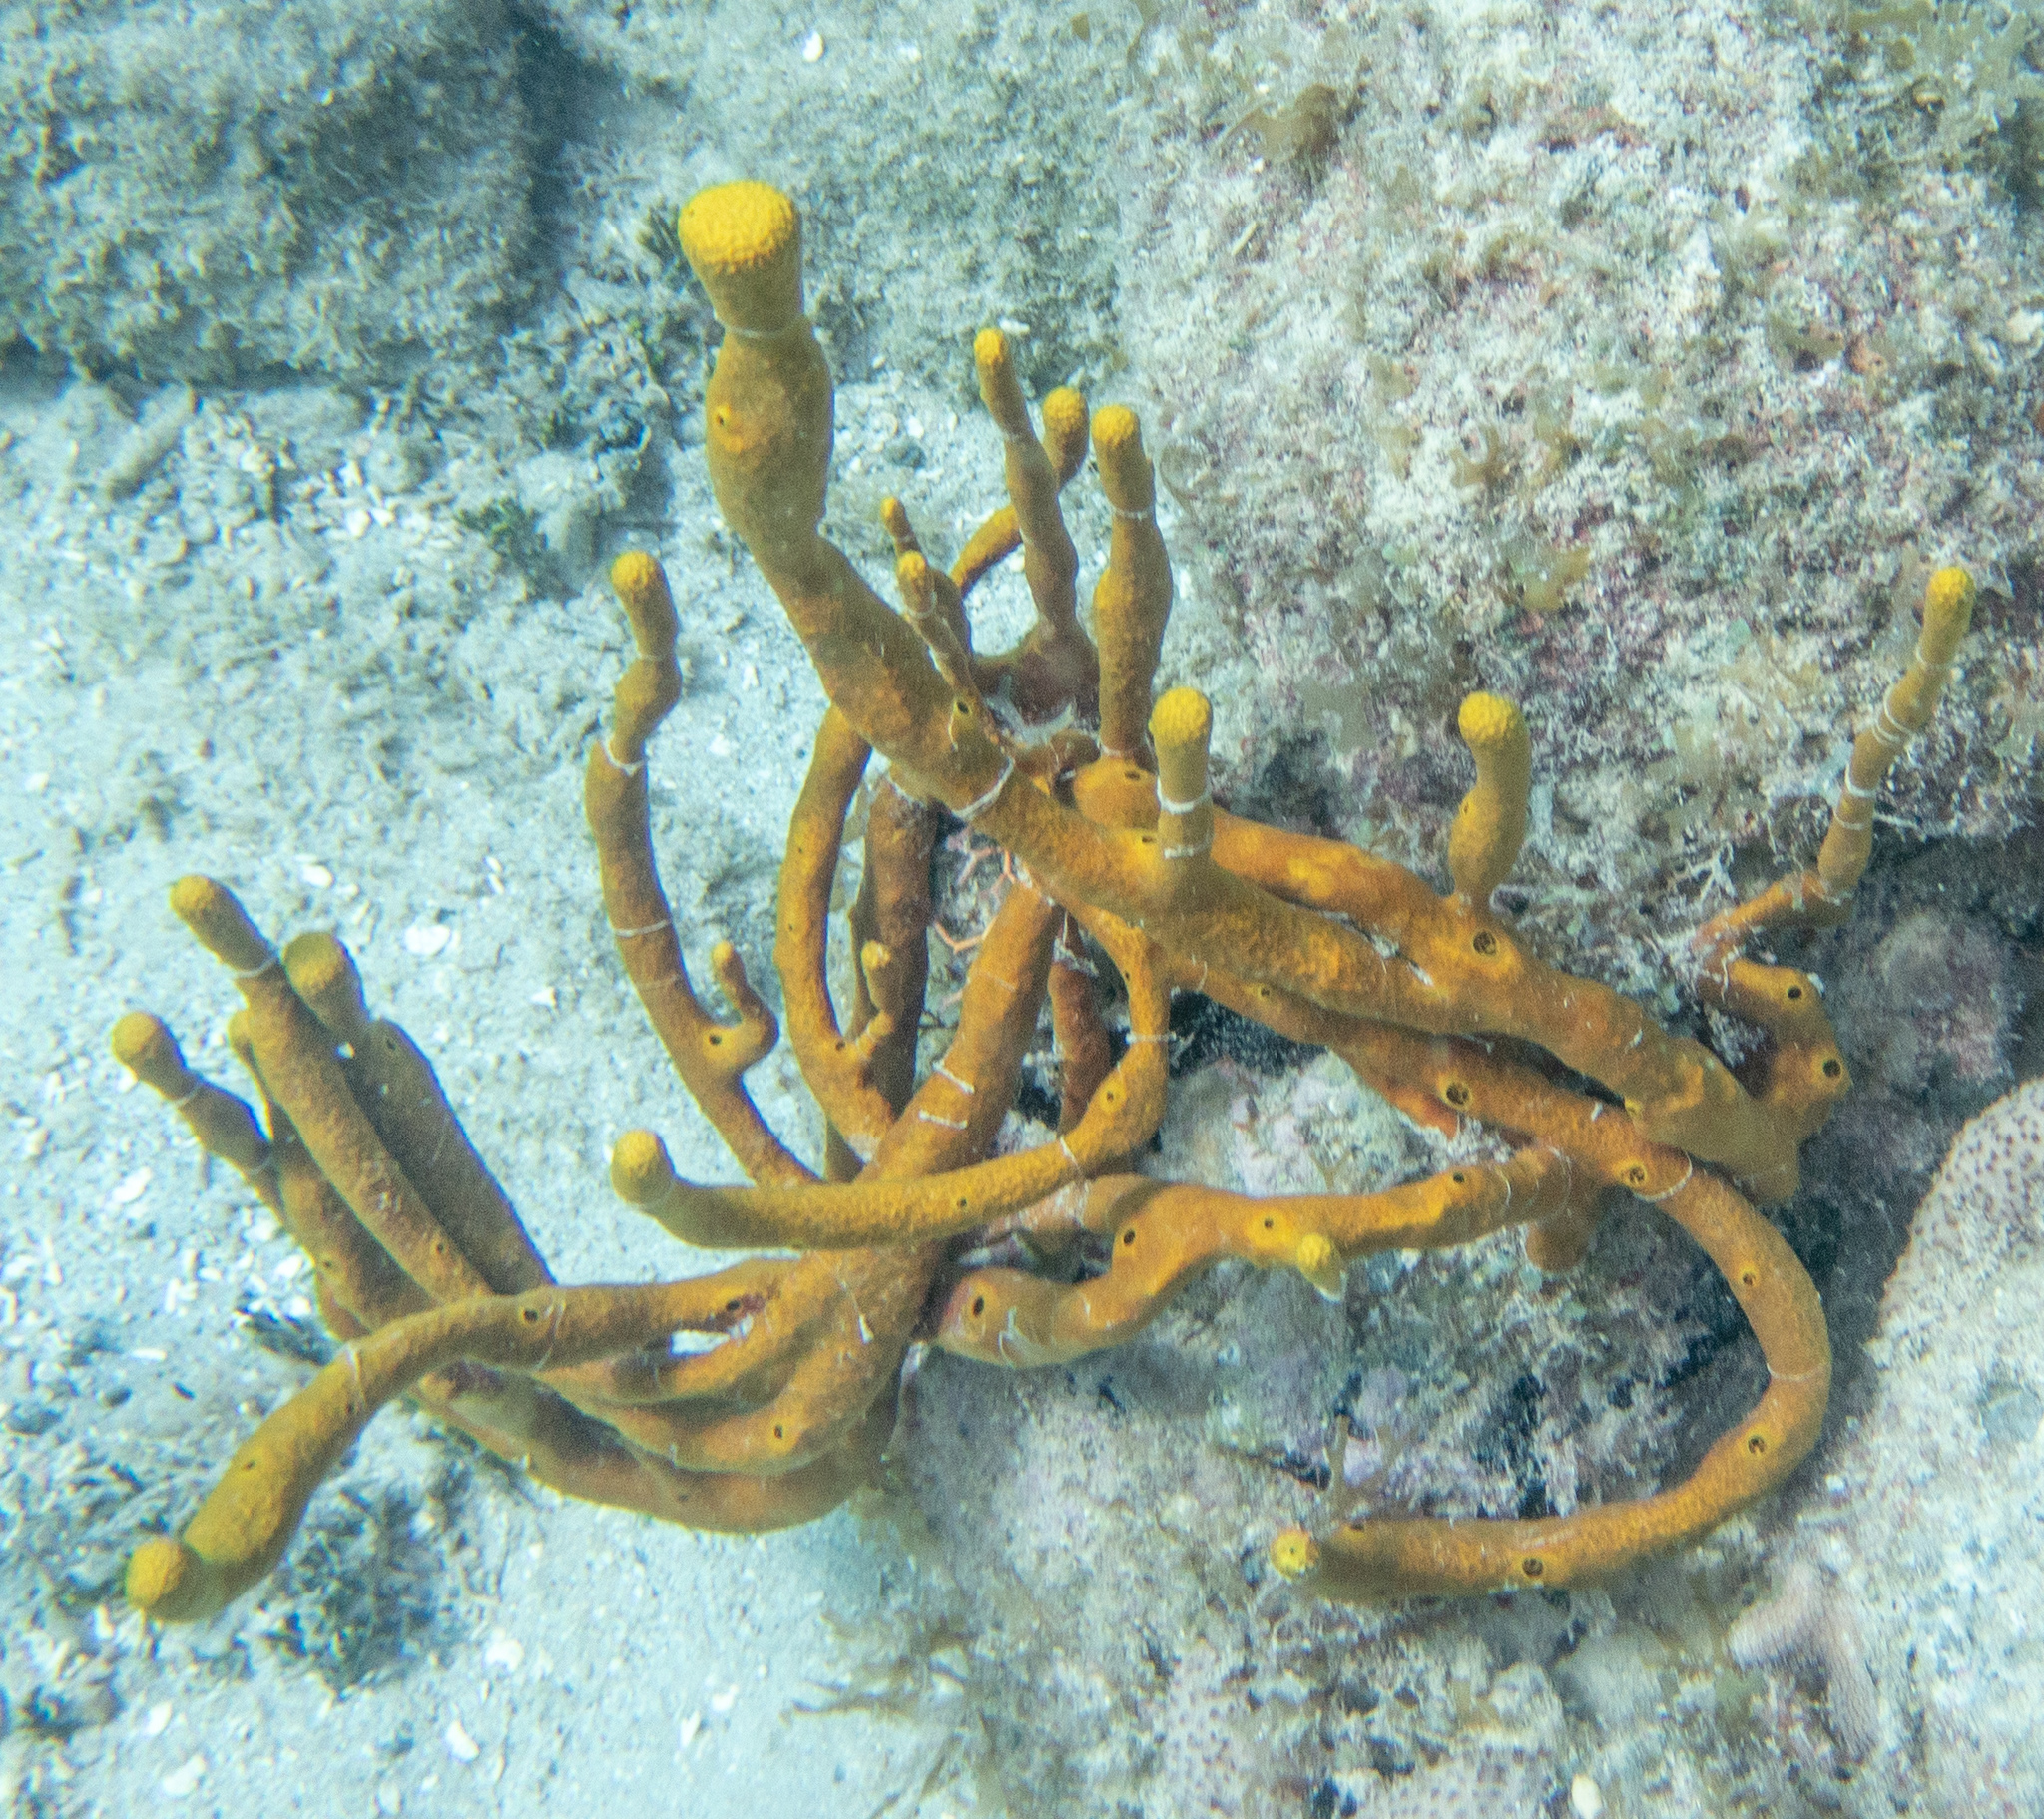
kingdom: Animalia
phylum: Porifera
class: Demospongiae
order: Verongiida
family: Aplysinidae
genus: Aplysina
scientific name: Aplysina fulva
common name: Scattered pore rope sponge
